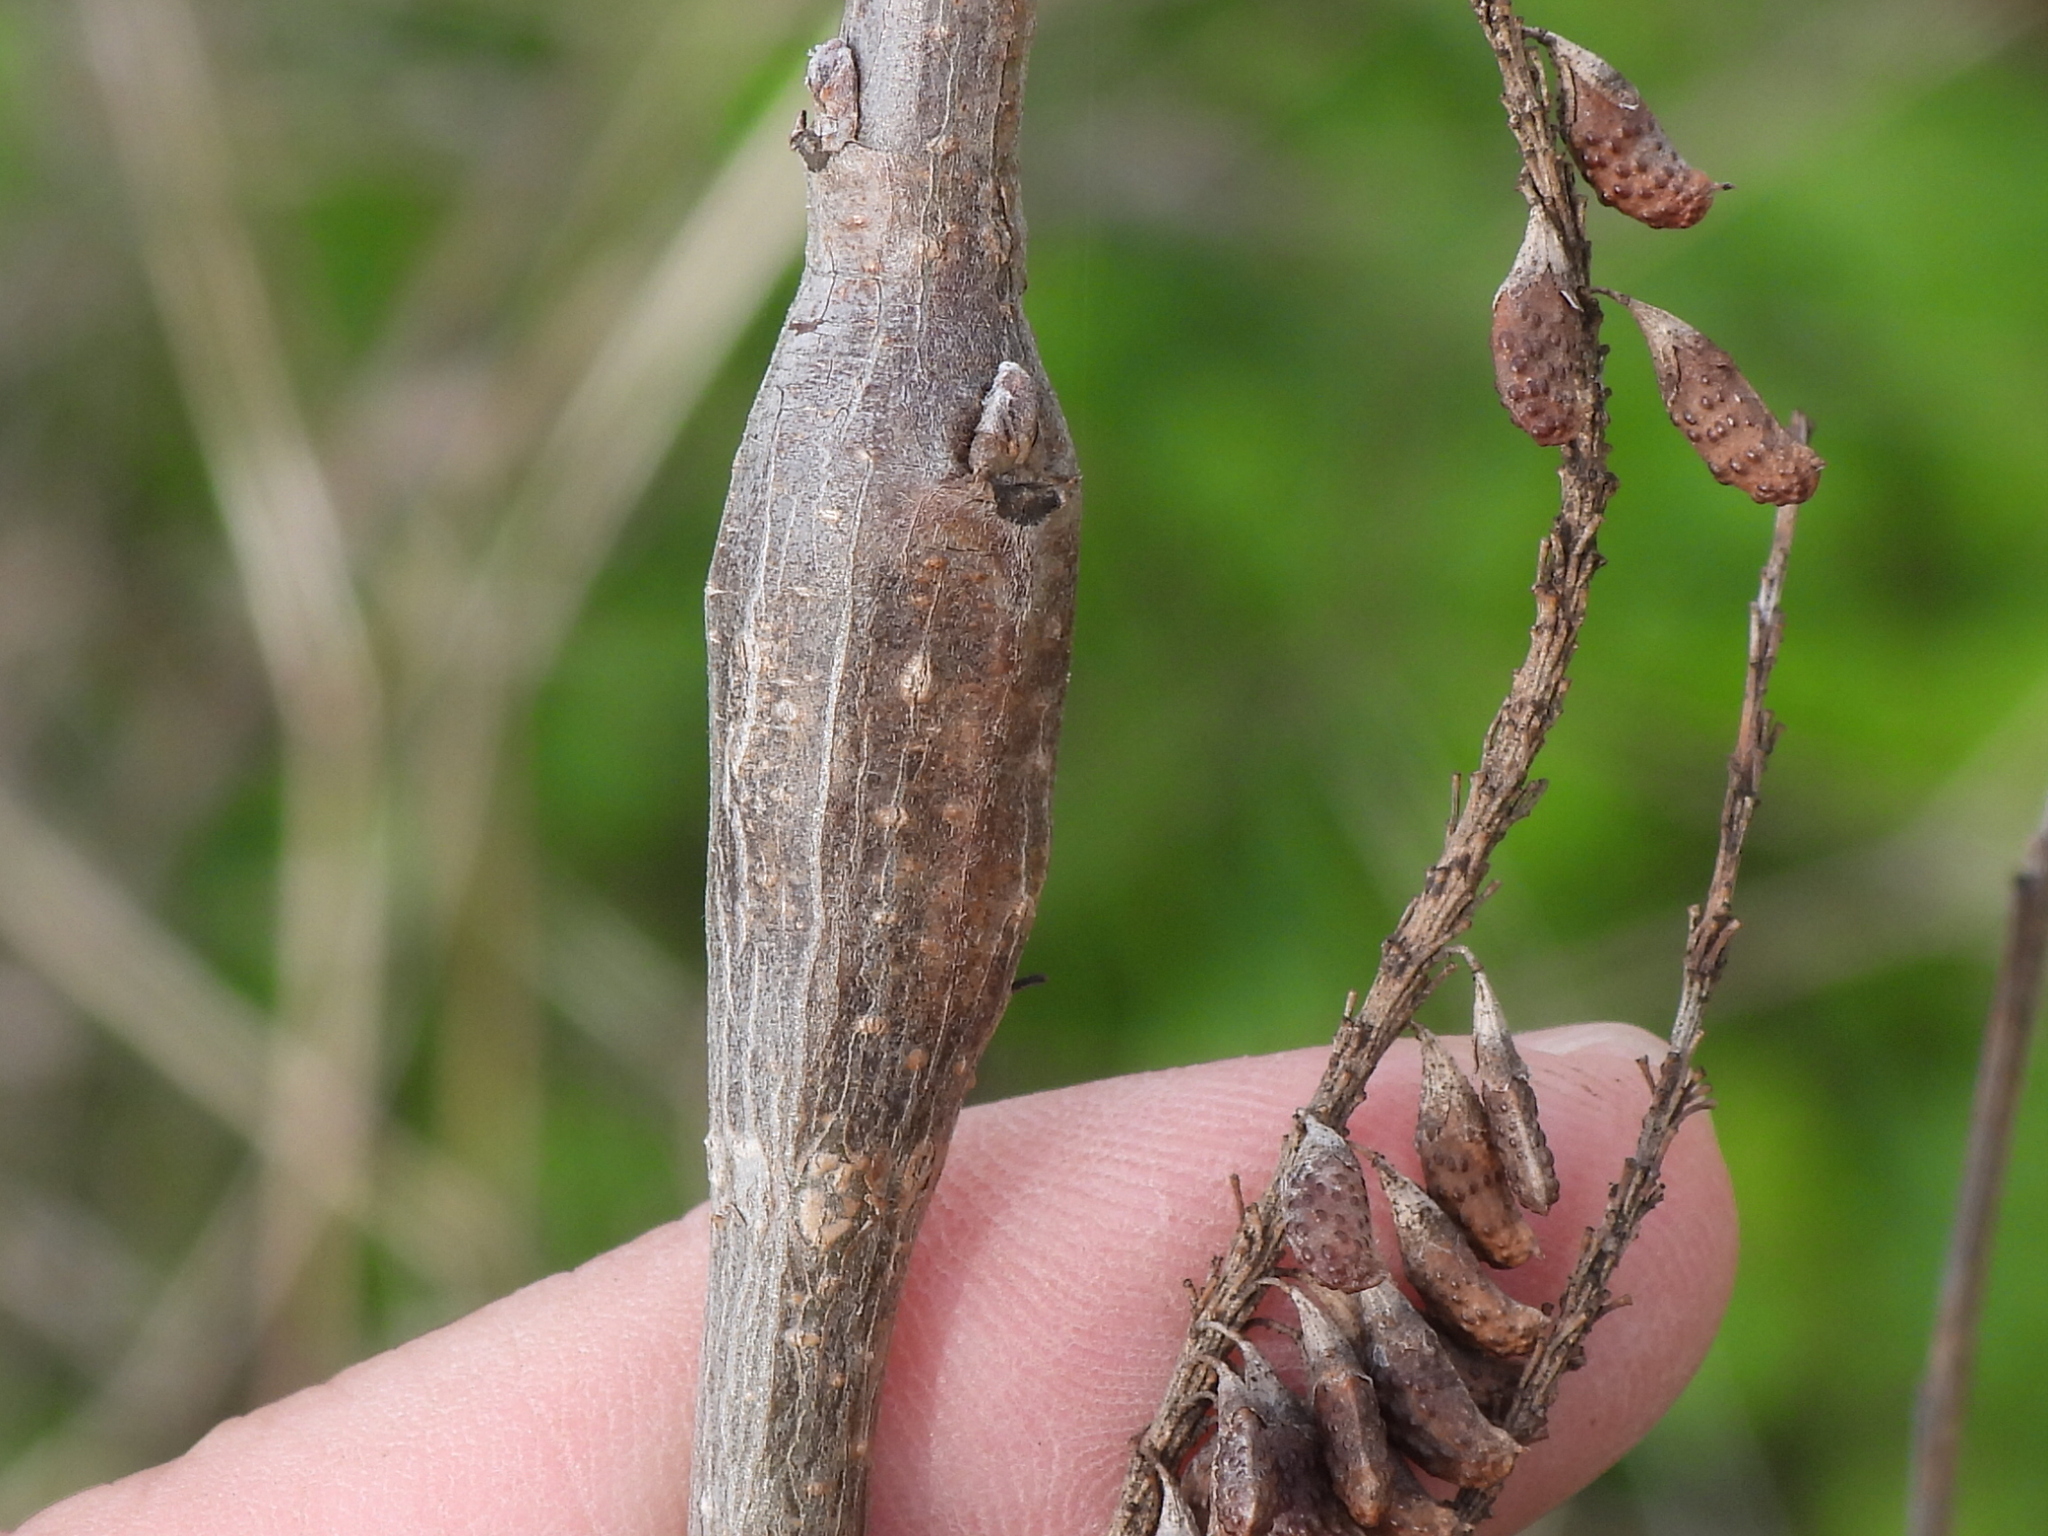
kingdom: Animalia
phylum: Arthropoda
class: Insecta
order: Lepidoptera
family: Cosmopterigidae
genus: Walshia
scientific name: Walshia amorphella
